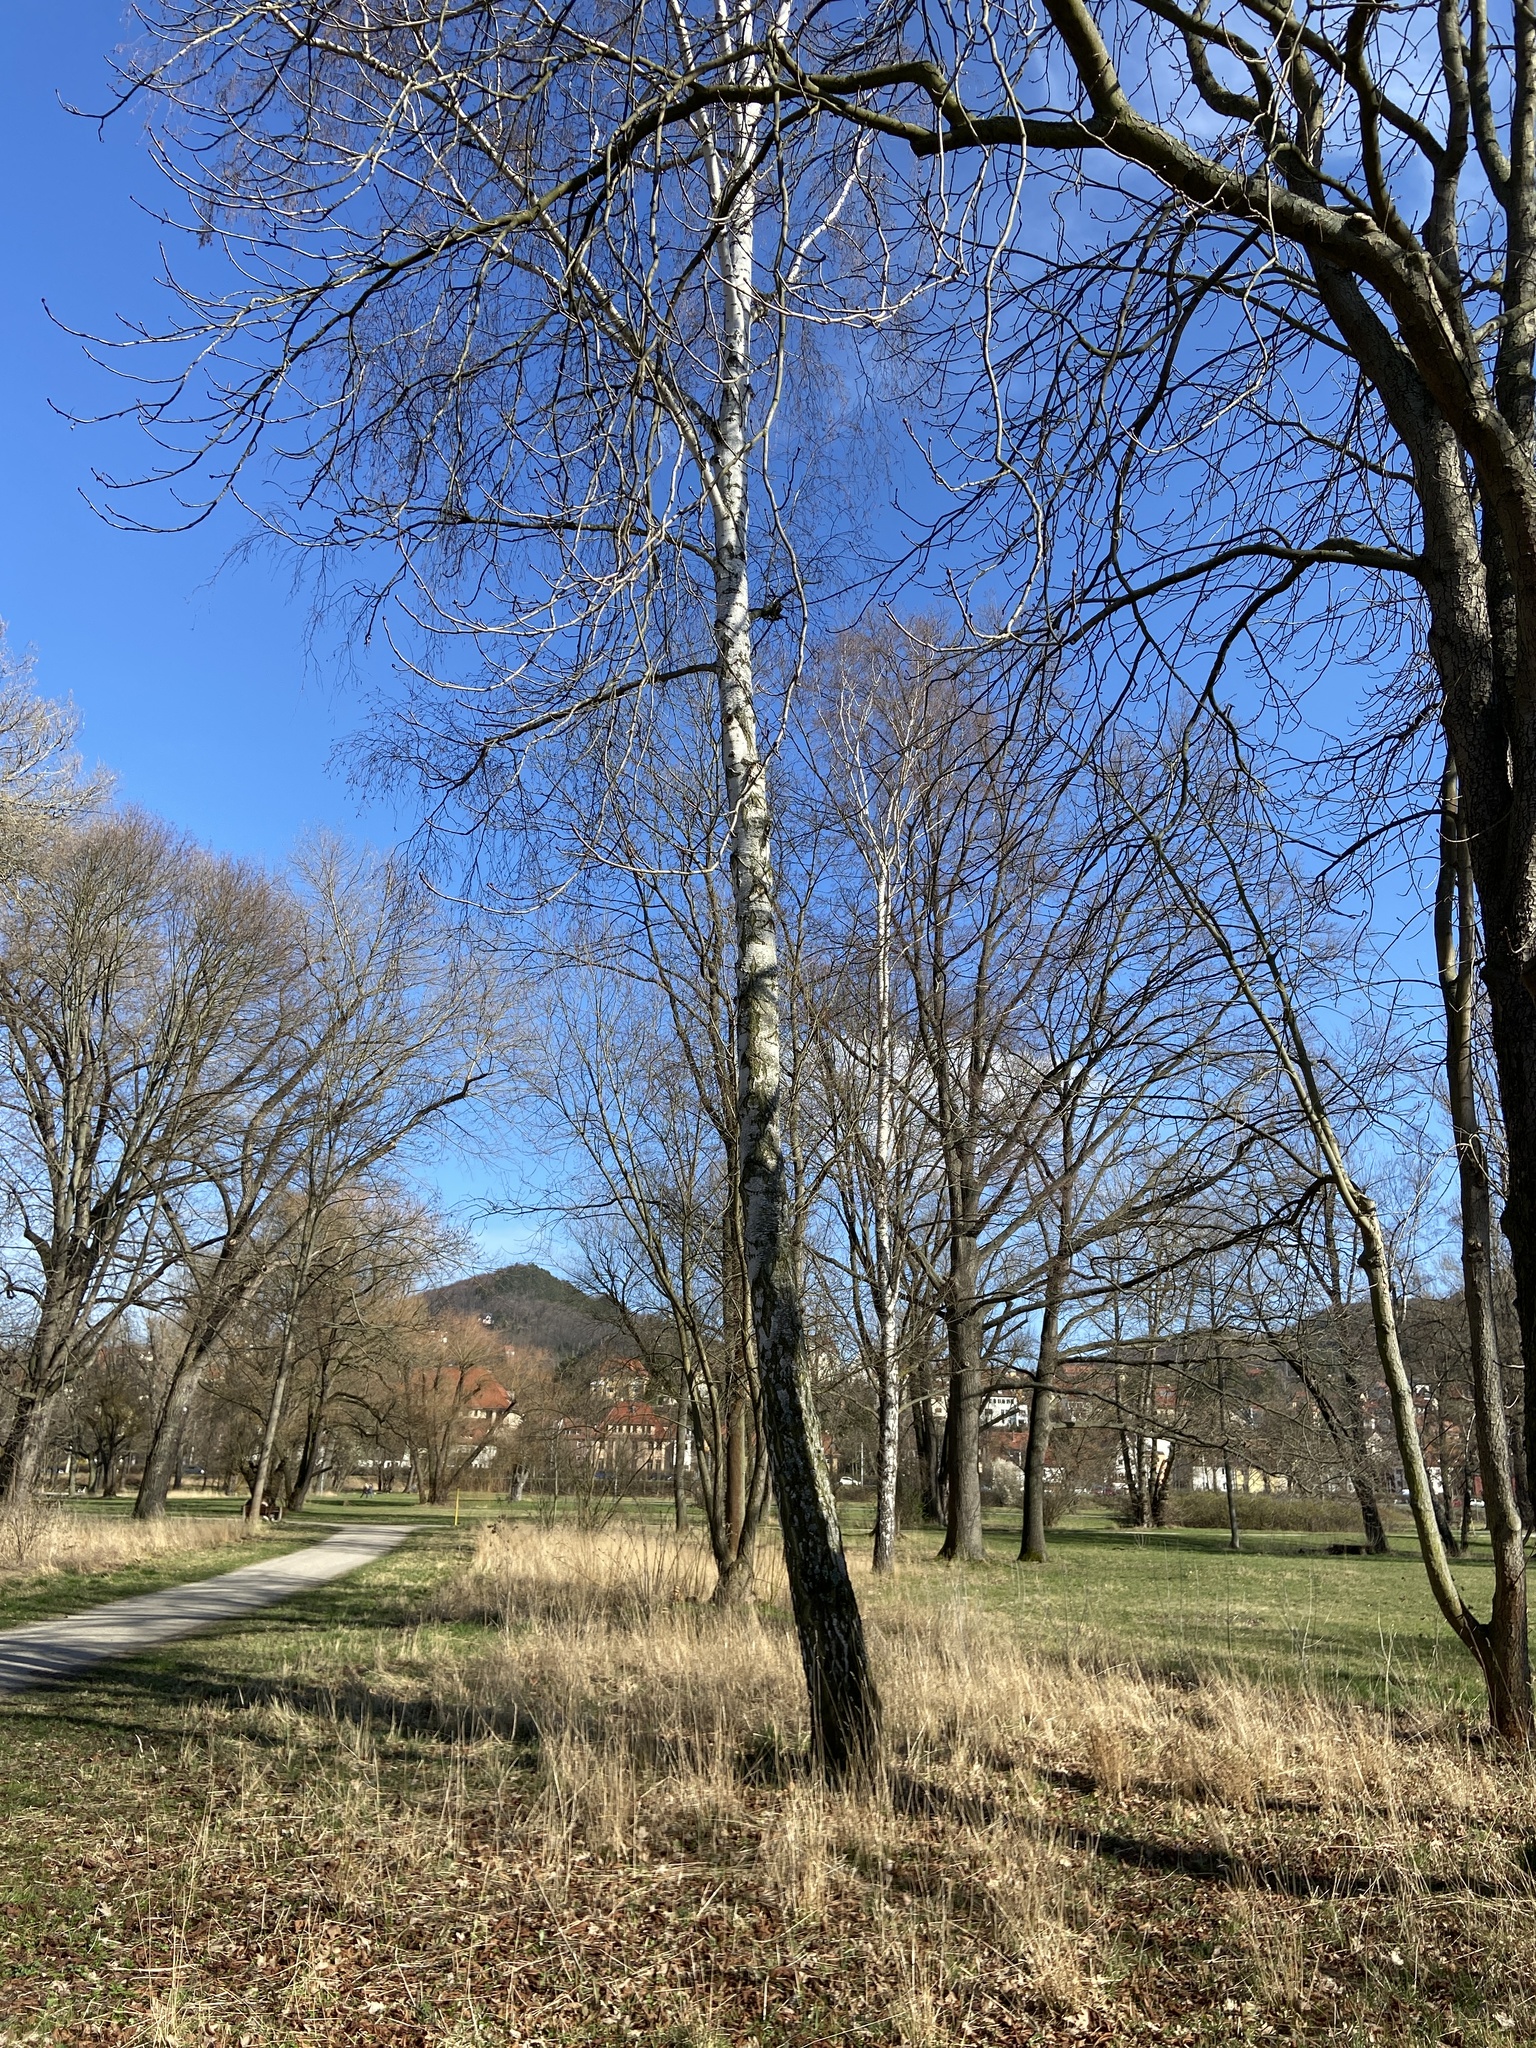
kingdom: Plantae
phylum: Tracheophyta
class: Magnoliopsida
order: Fagales
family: Betulaceae
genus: Betula
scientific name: Betula pendula
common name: Silver birch
